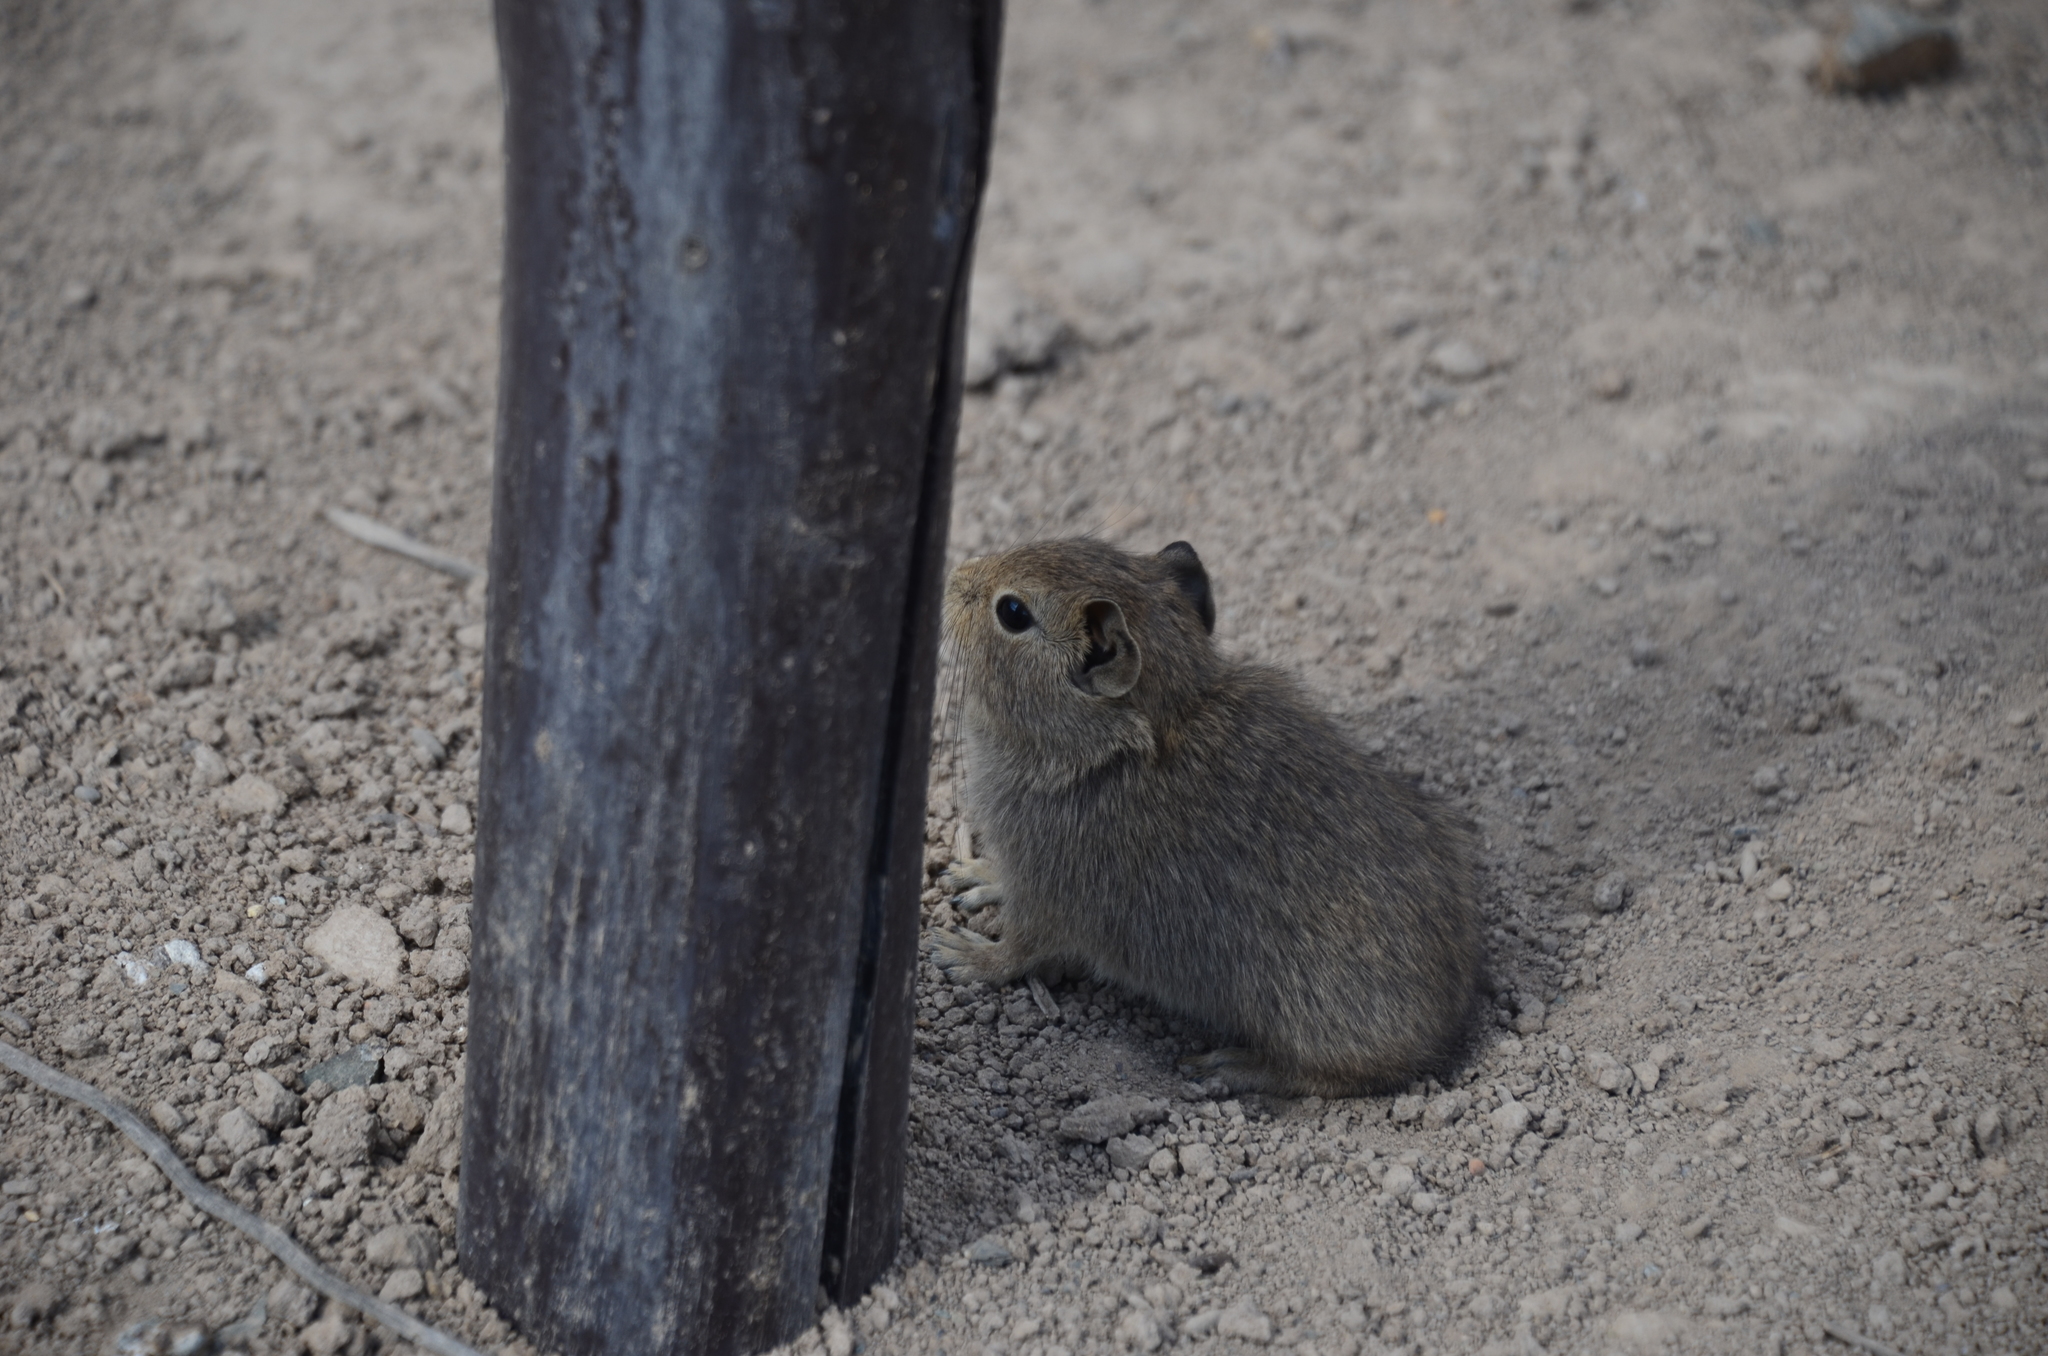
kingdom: Animalia
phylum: Chordata
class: Mammalia
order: Rodentia
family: Caviidae
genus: Microcavia
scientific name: Microcavia australis
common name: Southern mountain cavy
